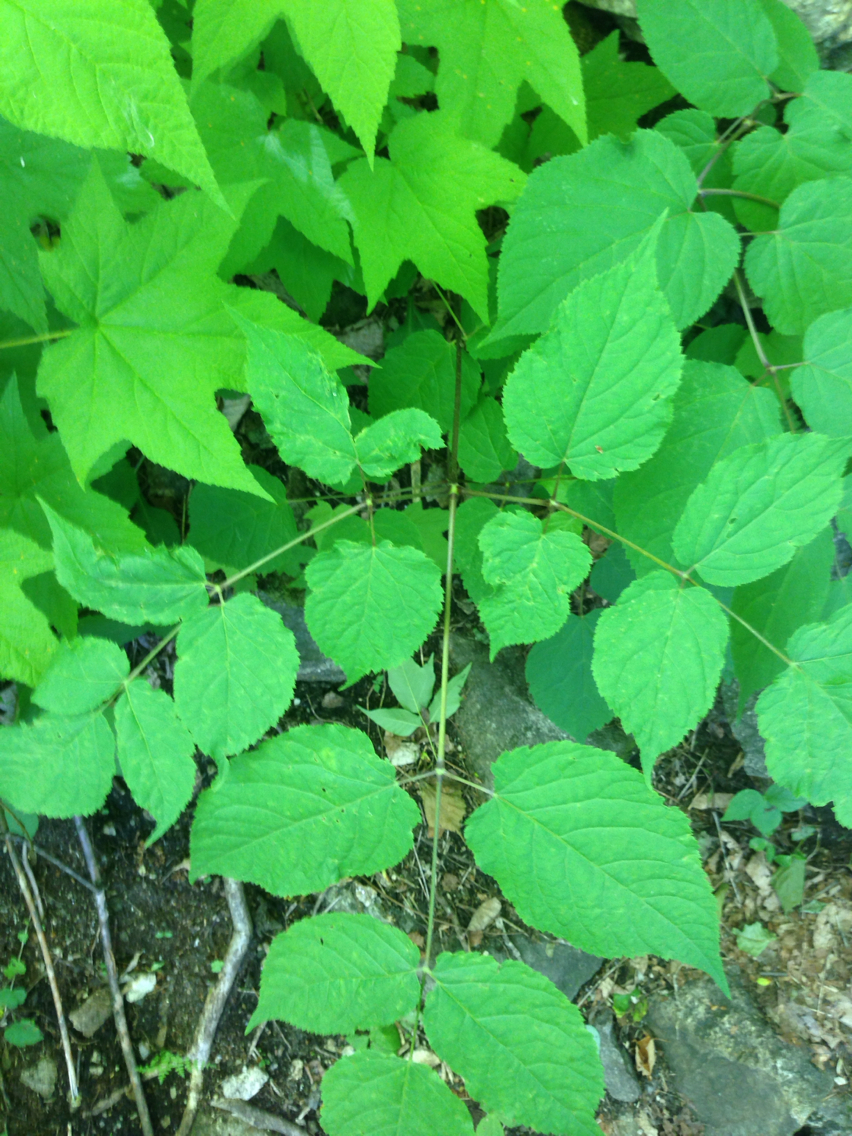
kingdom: Plantae
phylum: Tracheophyta
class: Magnoliopsida
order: Apiales
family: Araliaceae
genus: Aralia
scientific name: Aralia racemosa
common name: American-spikenard
